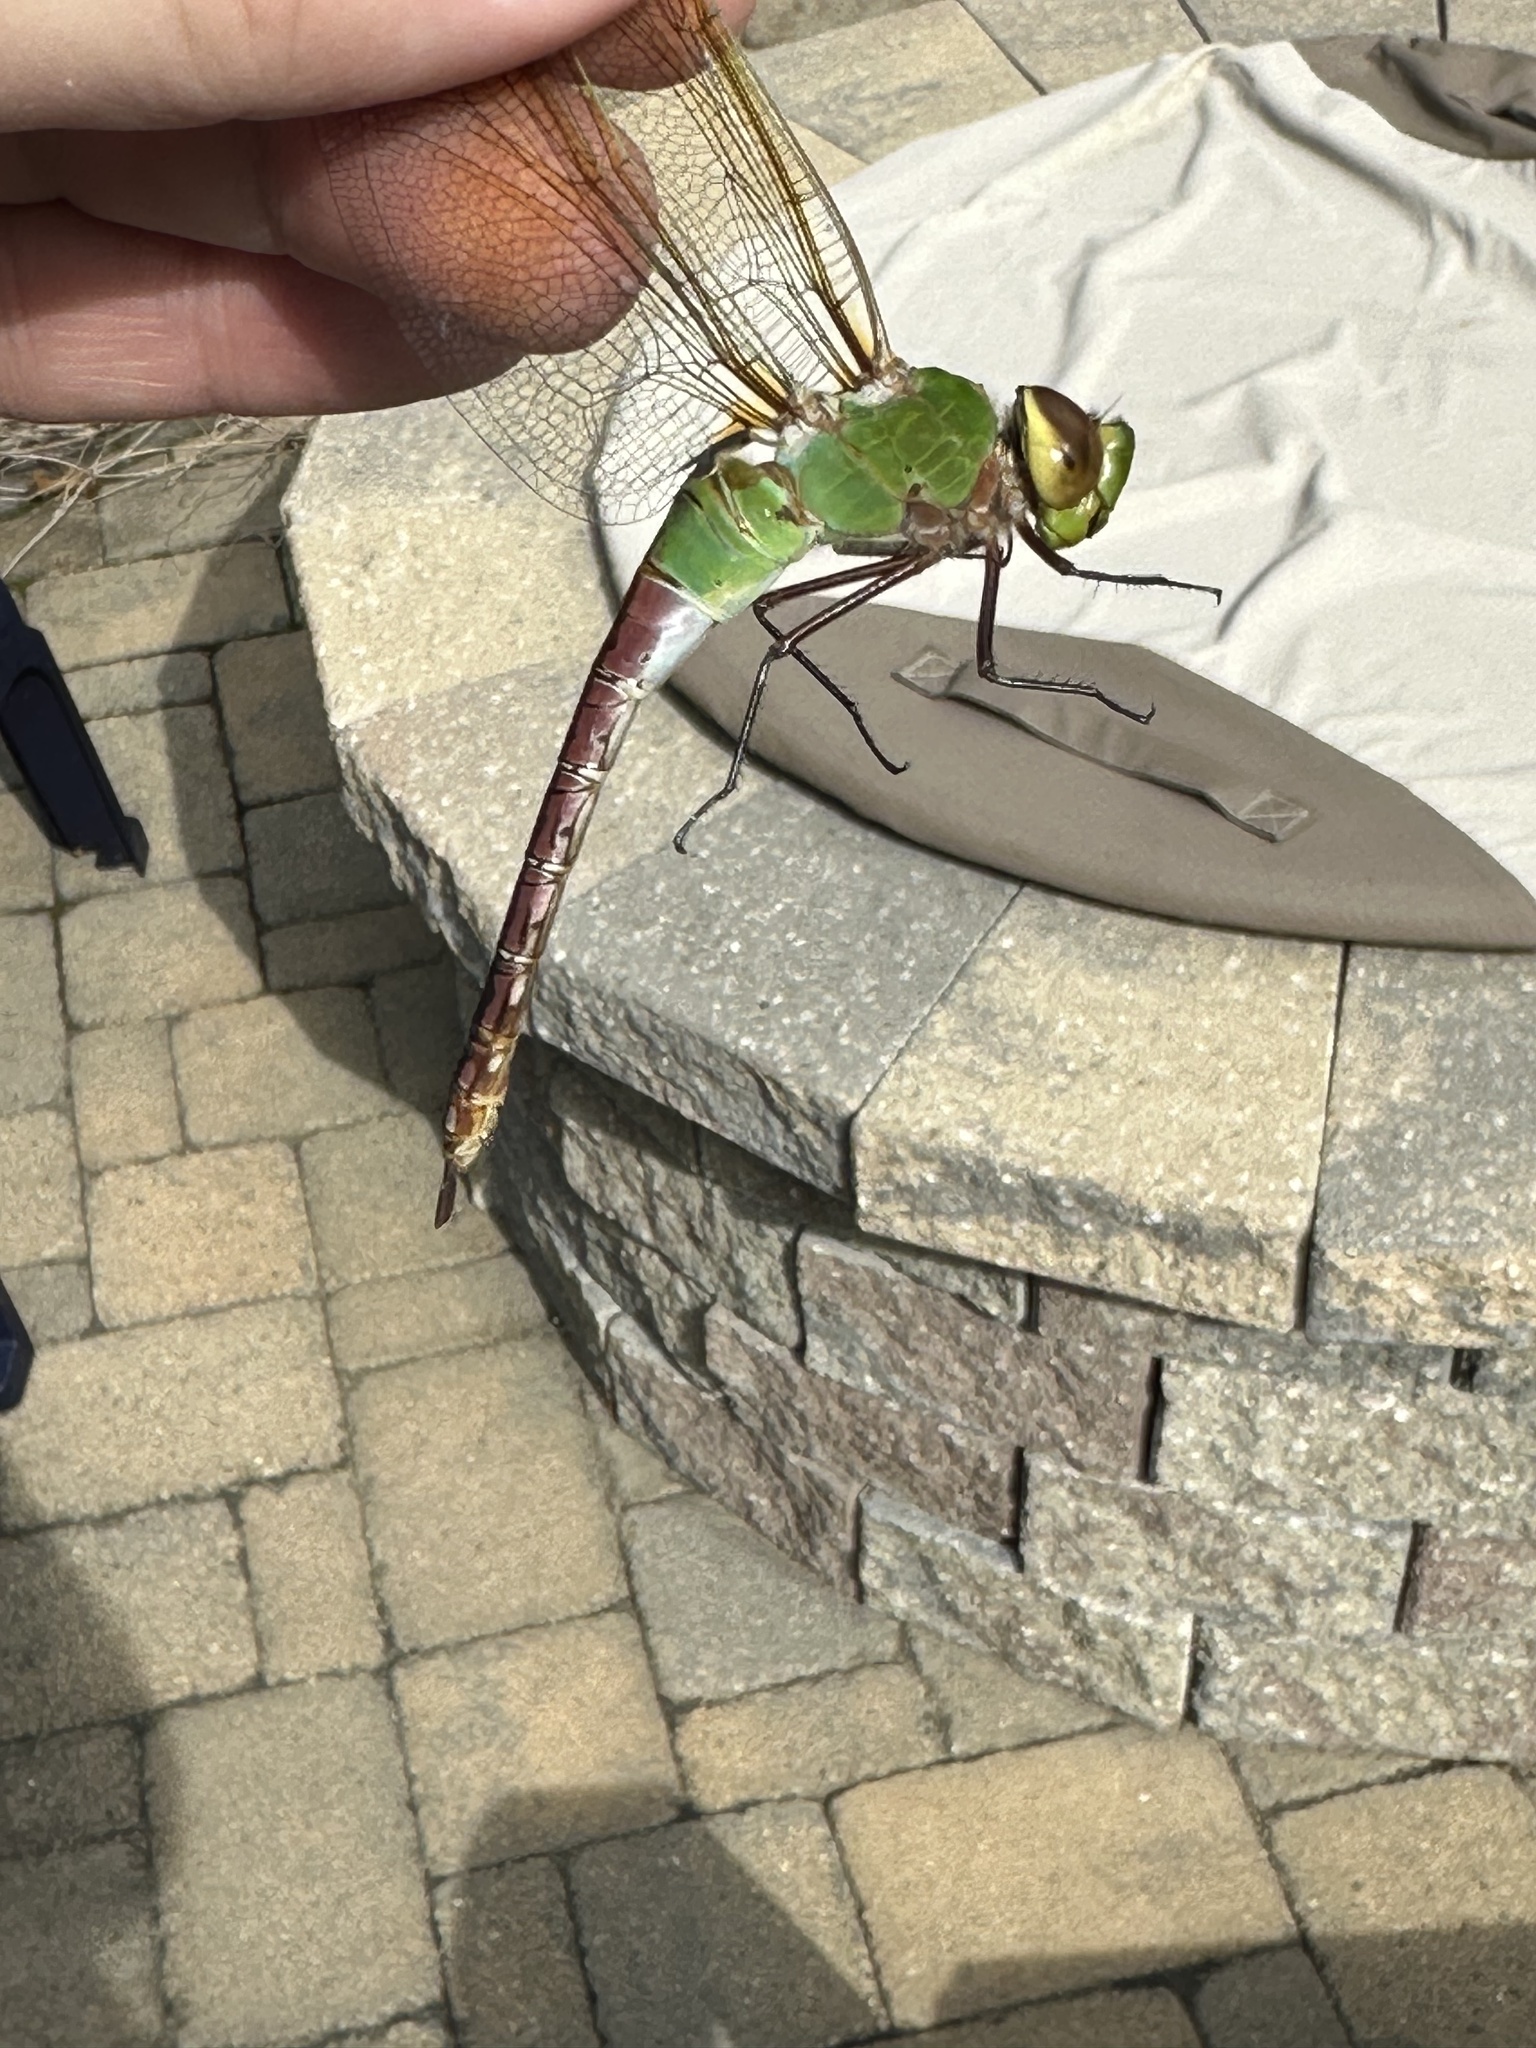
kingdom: Animalia
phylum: Arthropoda
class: Insecta
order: Odonata
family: Aeshnidae
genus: Anax
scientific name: Anax junius
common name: Common green darner
